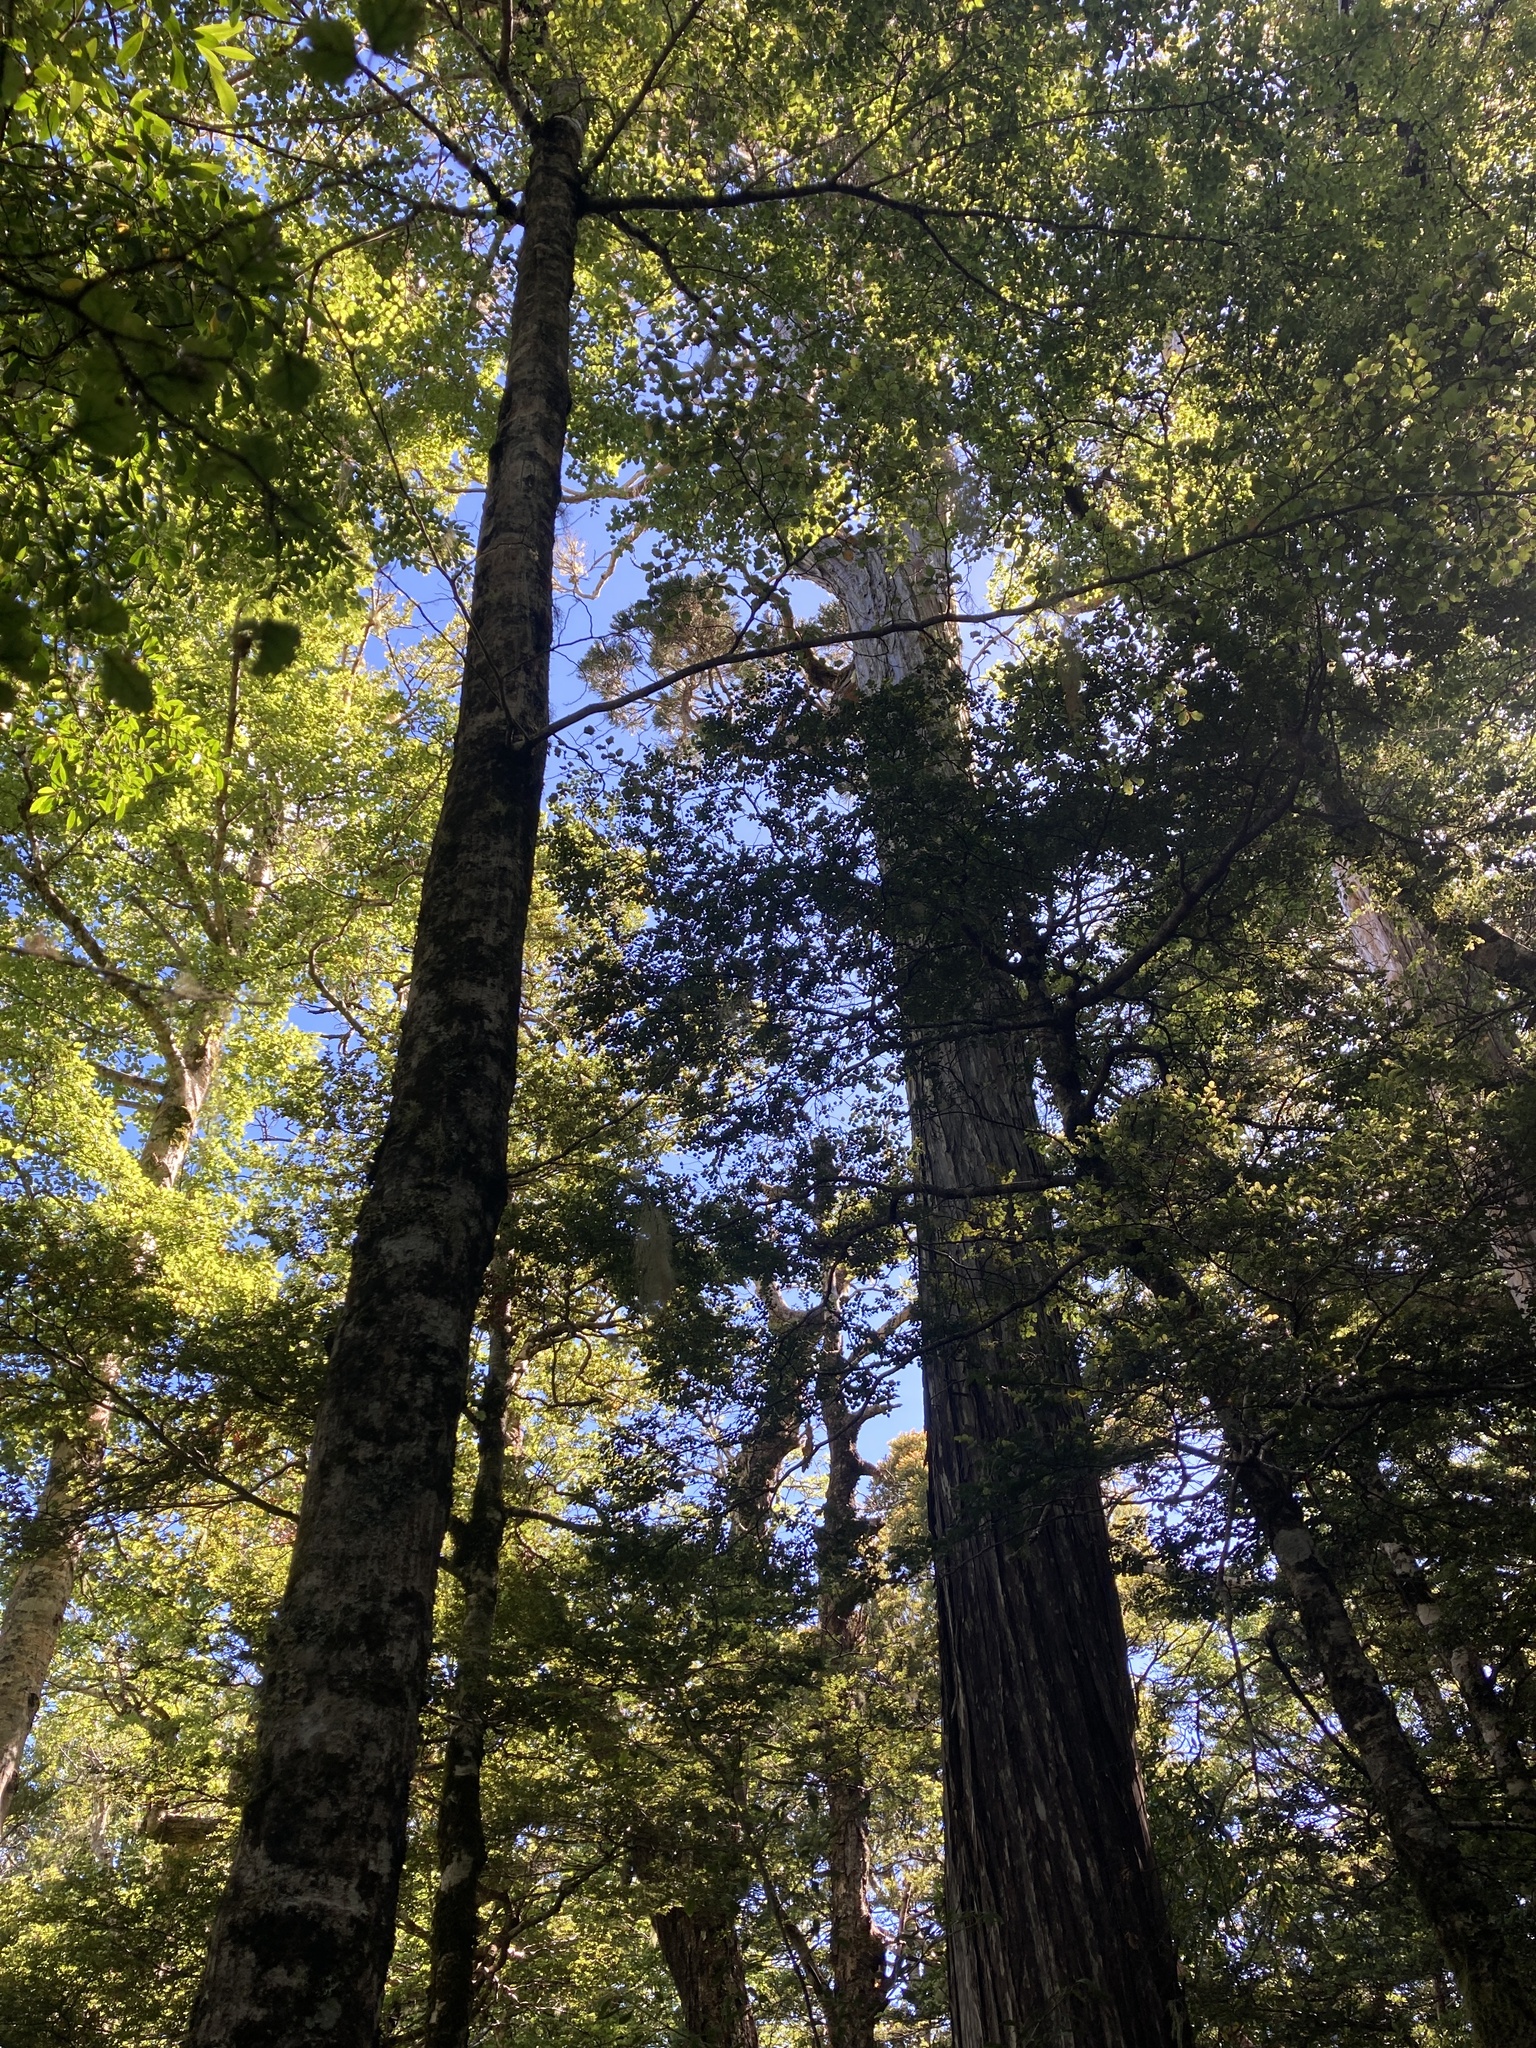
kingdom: Plantae
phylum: Tracheophyta
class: Pinopsida
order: Pinales
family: Cupressaceae
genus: Libocedrus
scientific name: Libocedrus bidwillii
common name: Cedar
